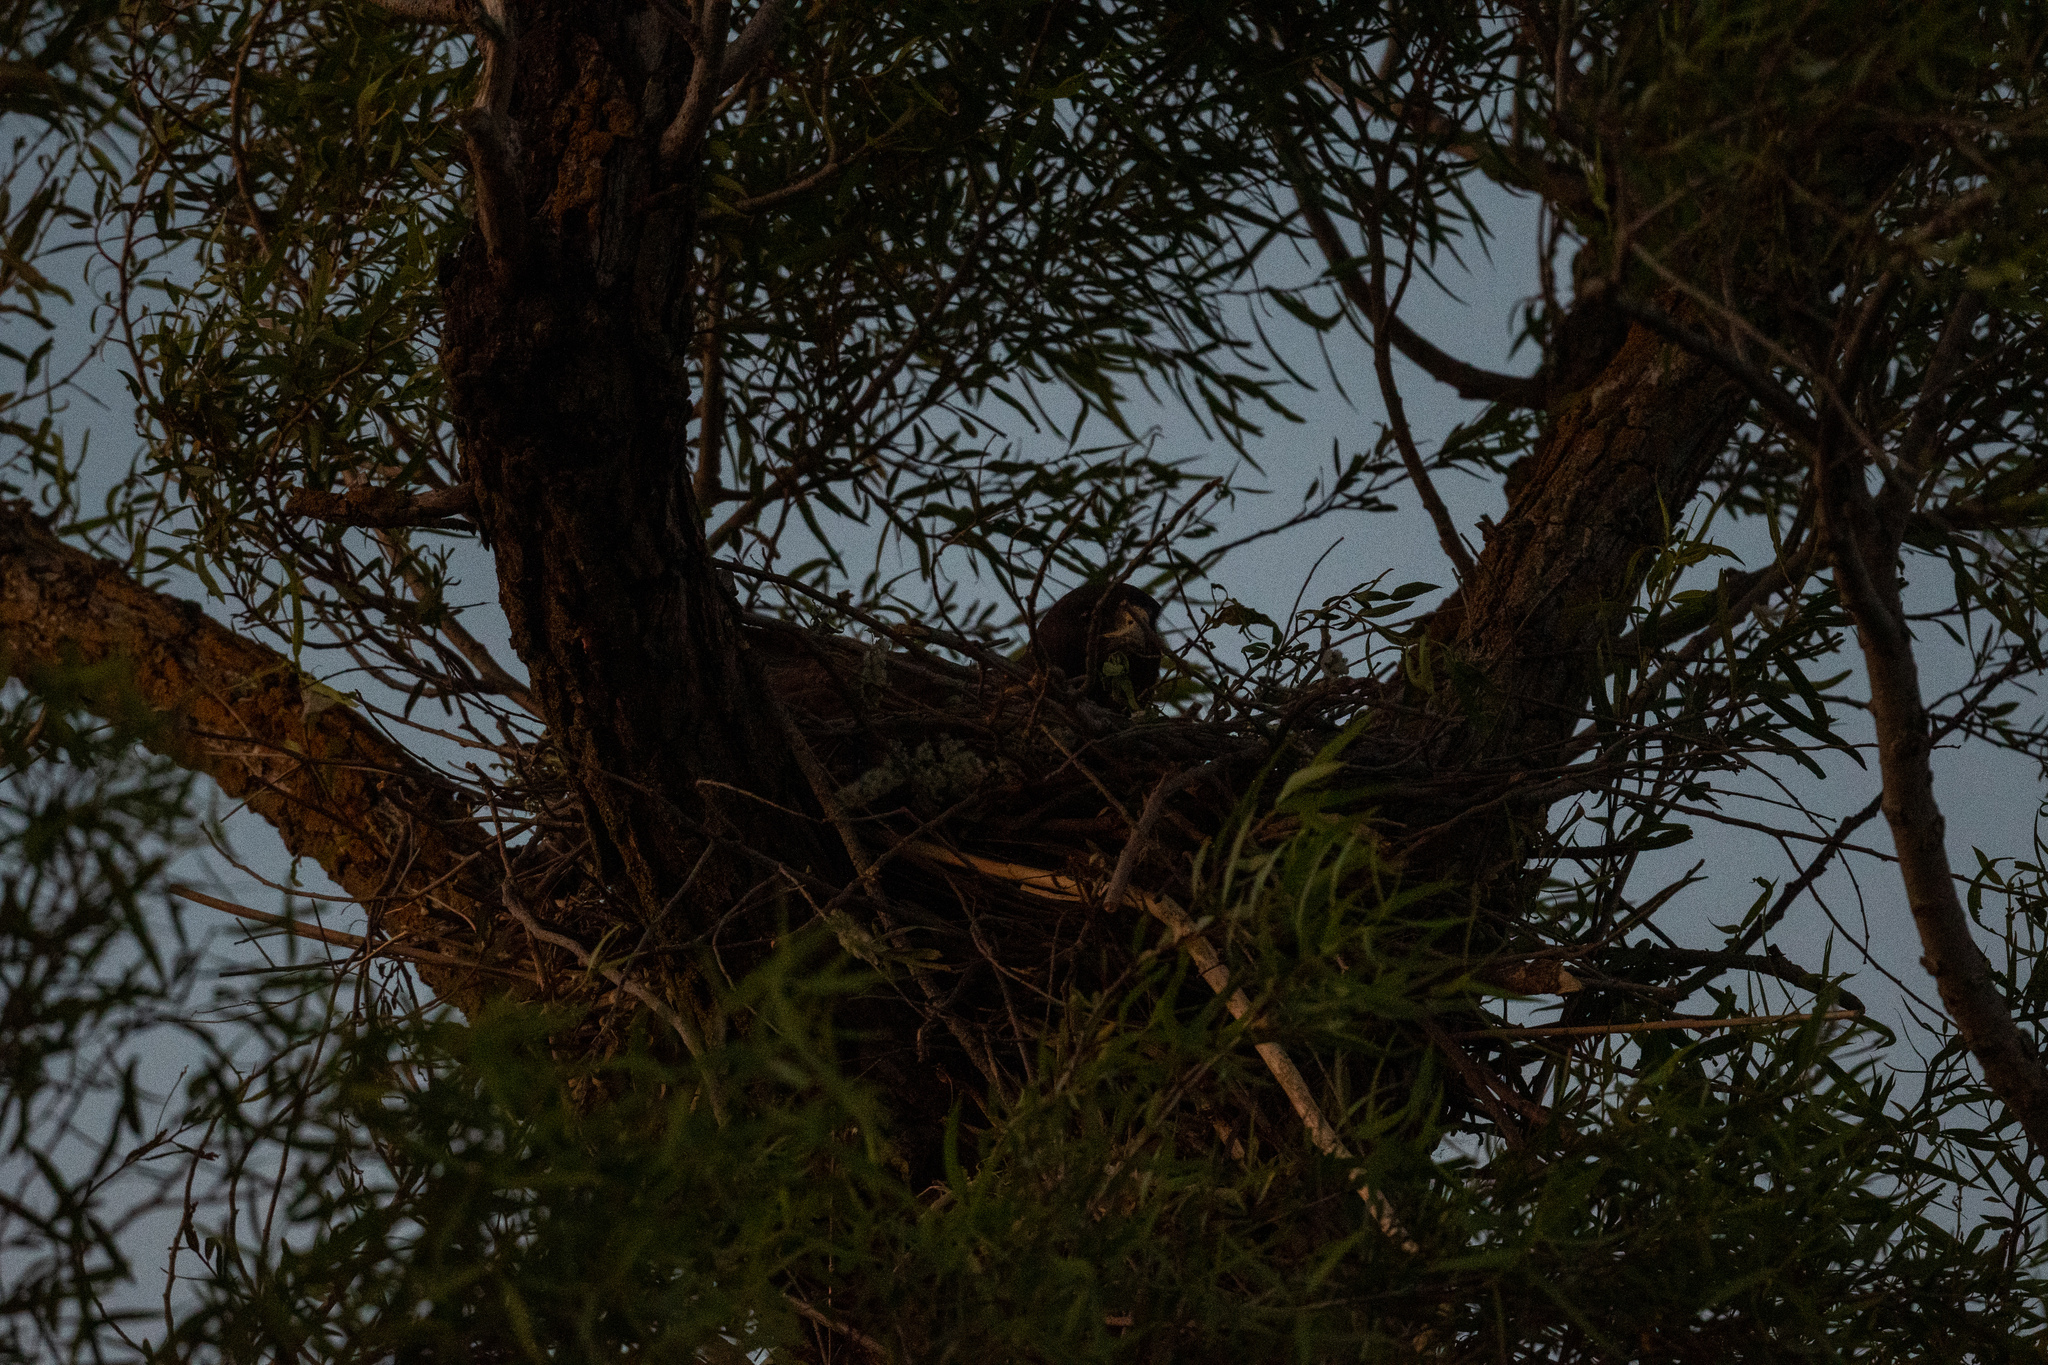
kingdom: Animalia
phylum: Chordata
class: Aves
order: Accipitriformes
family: Accipitridae
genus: Buteo
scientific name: Buteo swainsoni
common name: Swainson's hawk
